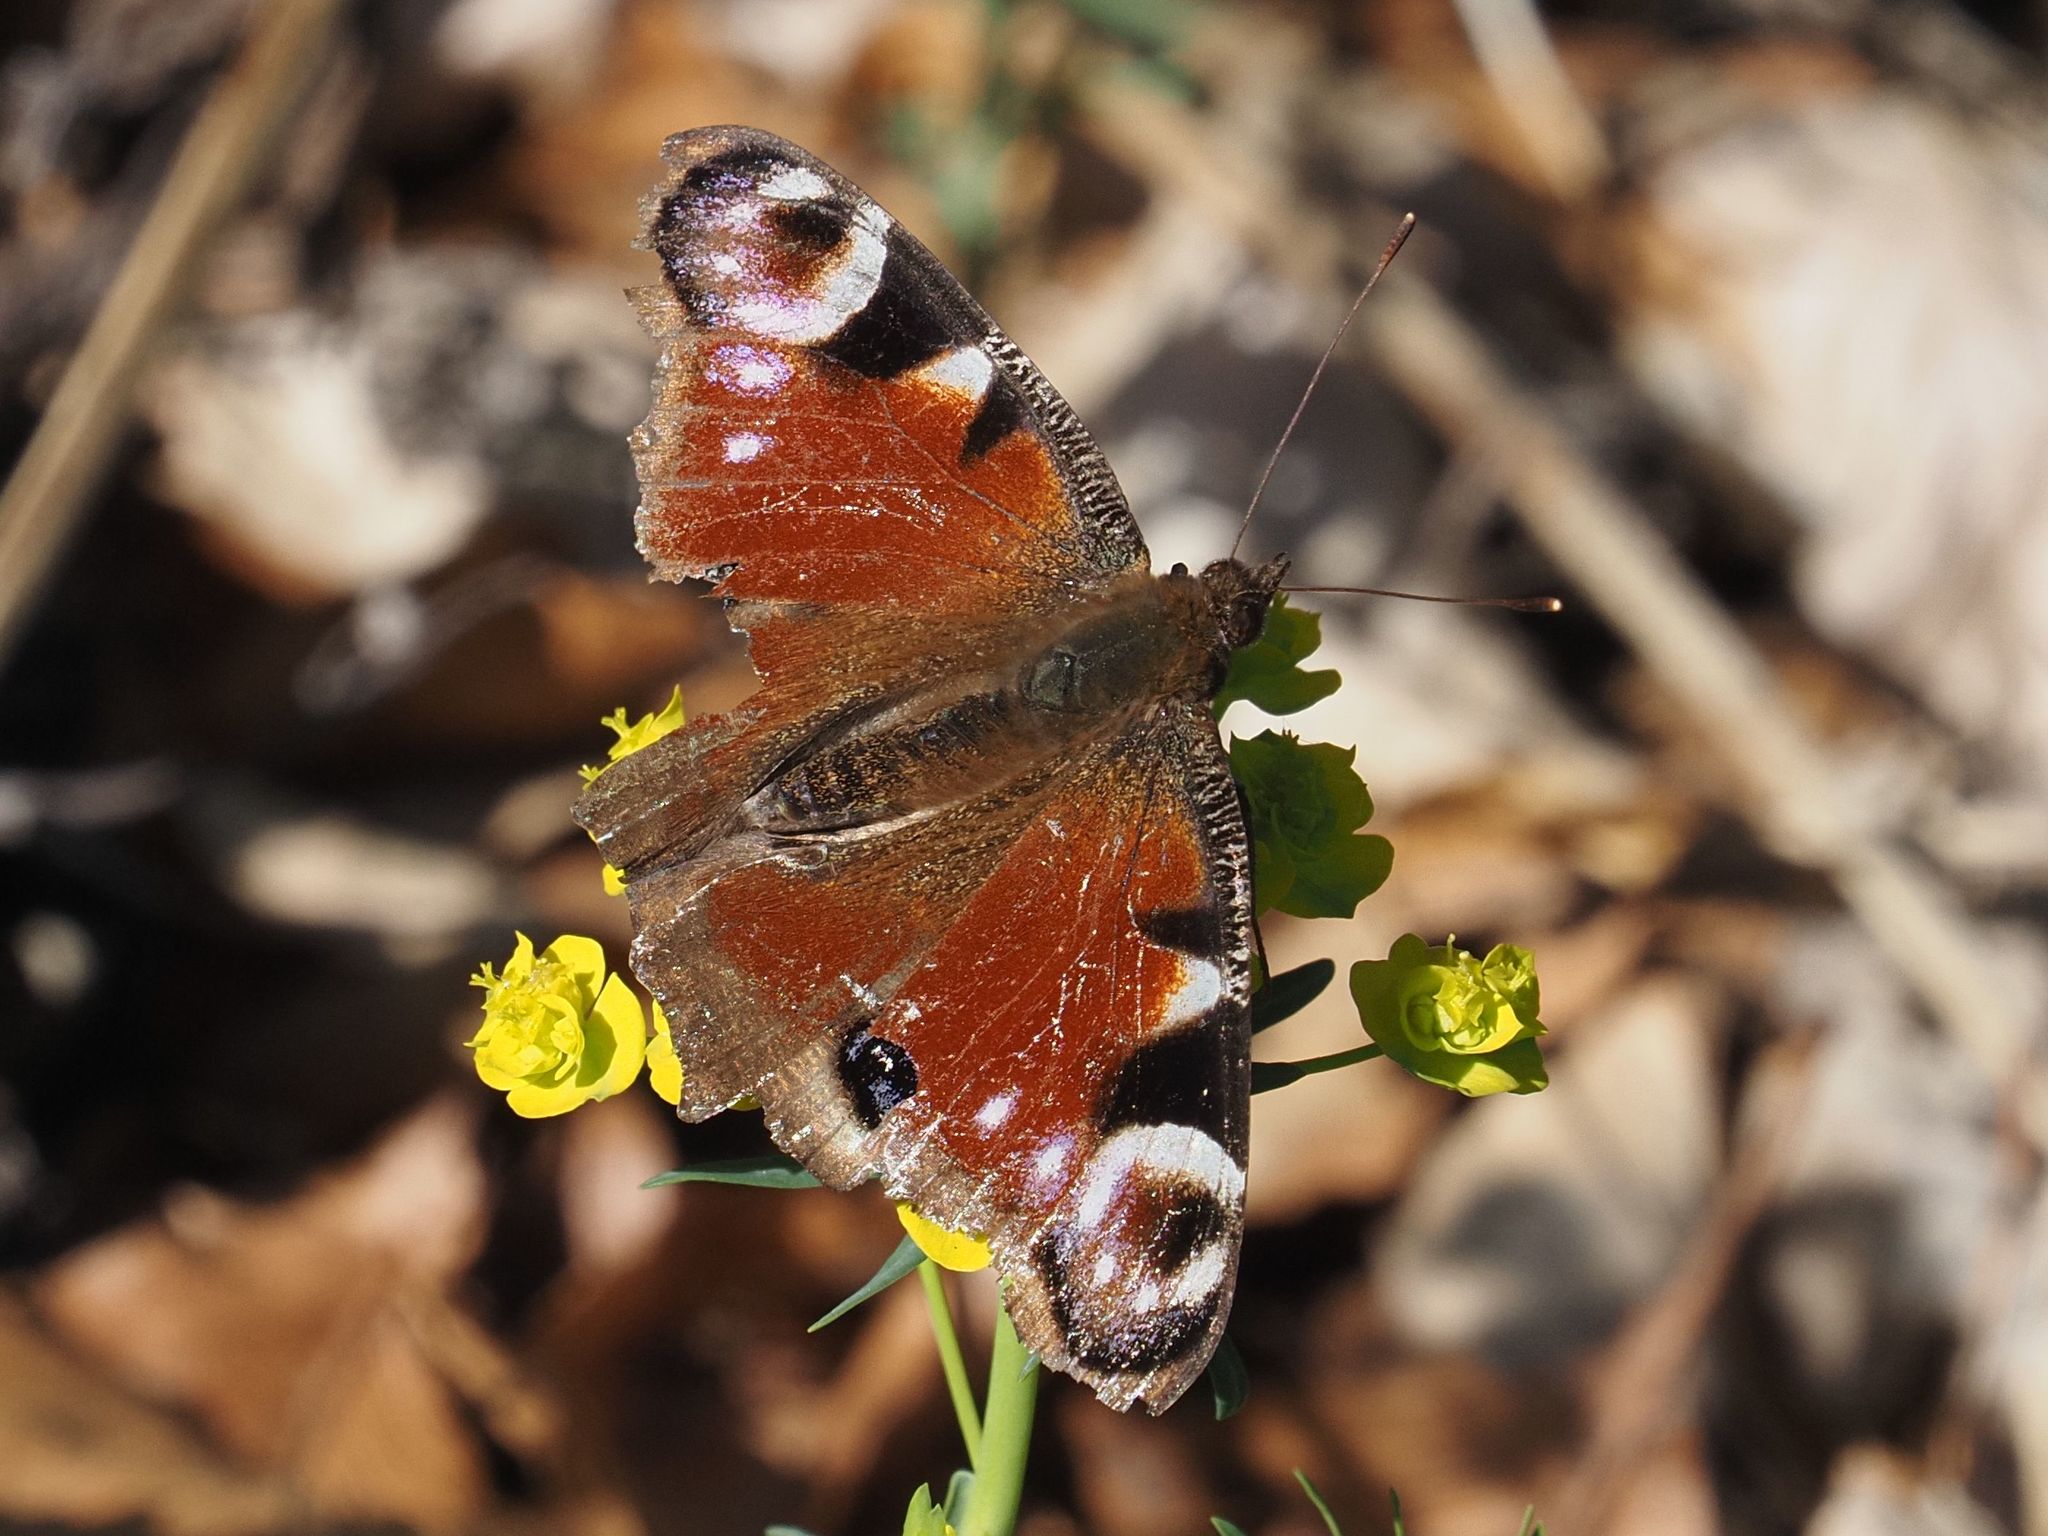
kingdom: Animalia
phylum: Arthropoda
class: Insecta
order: Lepidoptera
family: Nymphalidae
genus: Aglais
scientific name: Aglais io
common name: Peacock
